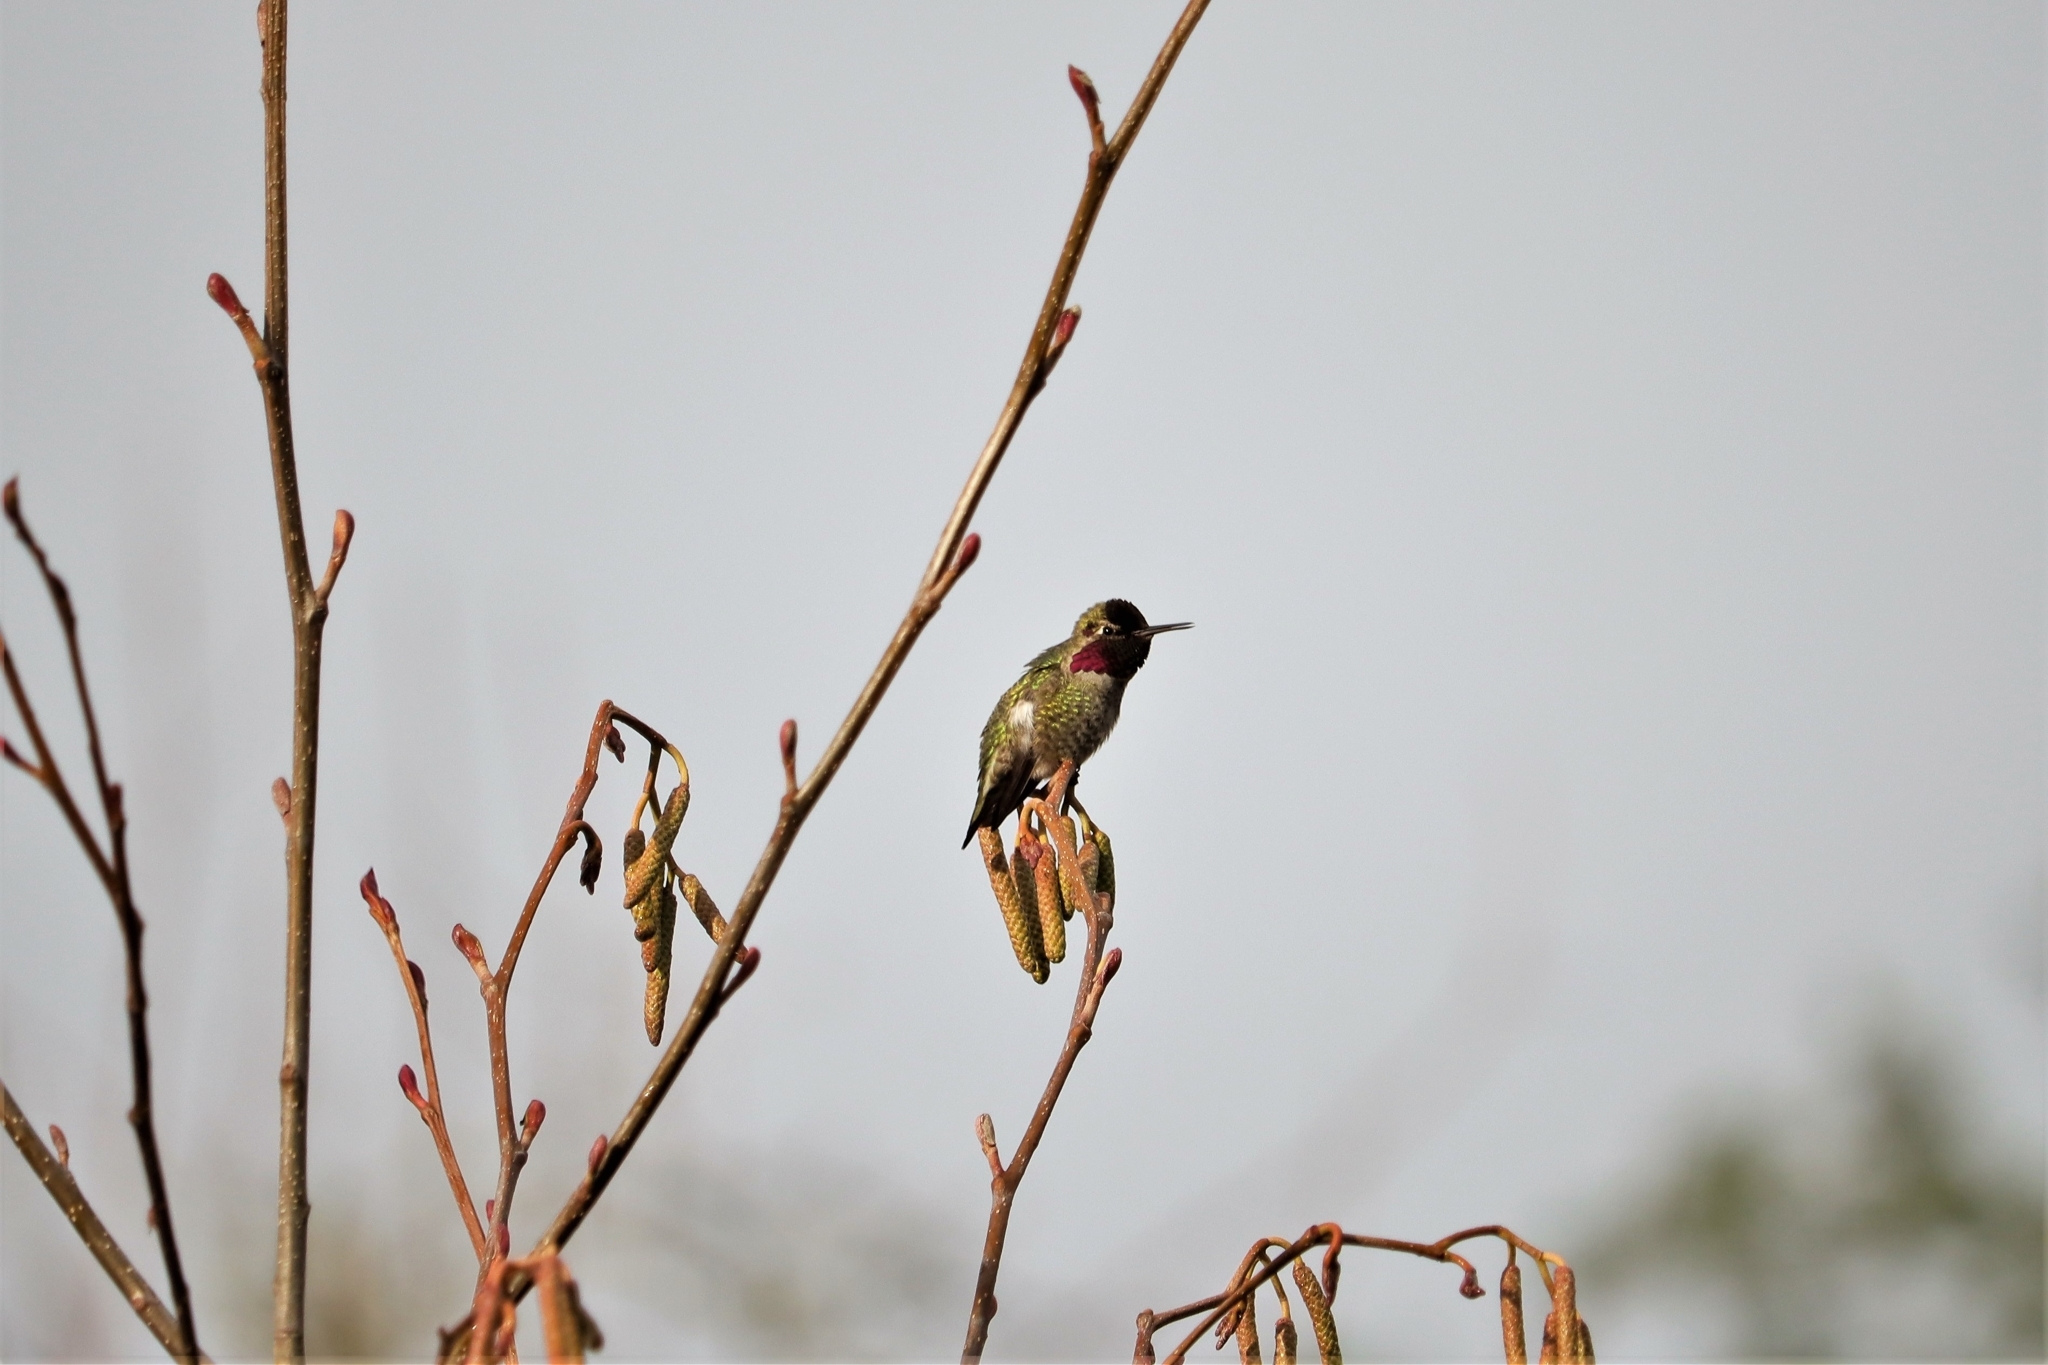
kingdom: Animalia
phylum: Chordata
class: Aves
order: Apodiformes
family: Trochilidae
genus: Calypte
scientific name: Calypte anna
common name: Anna's hummingbird
